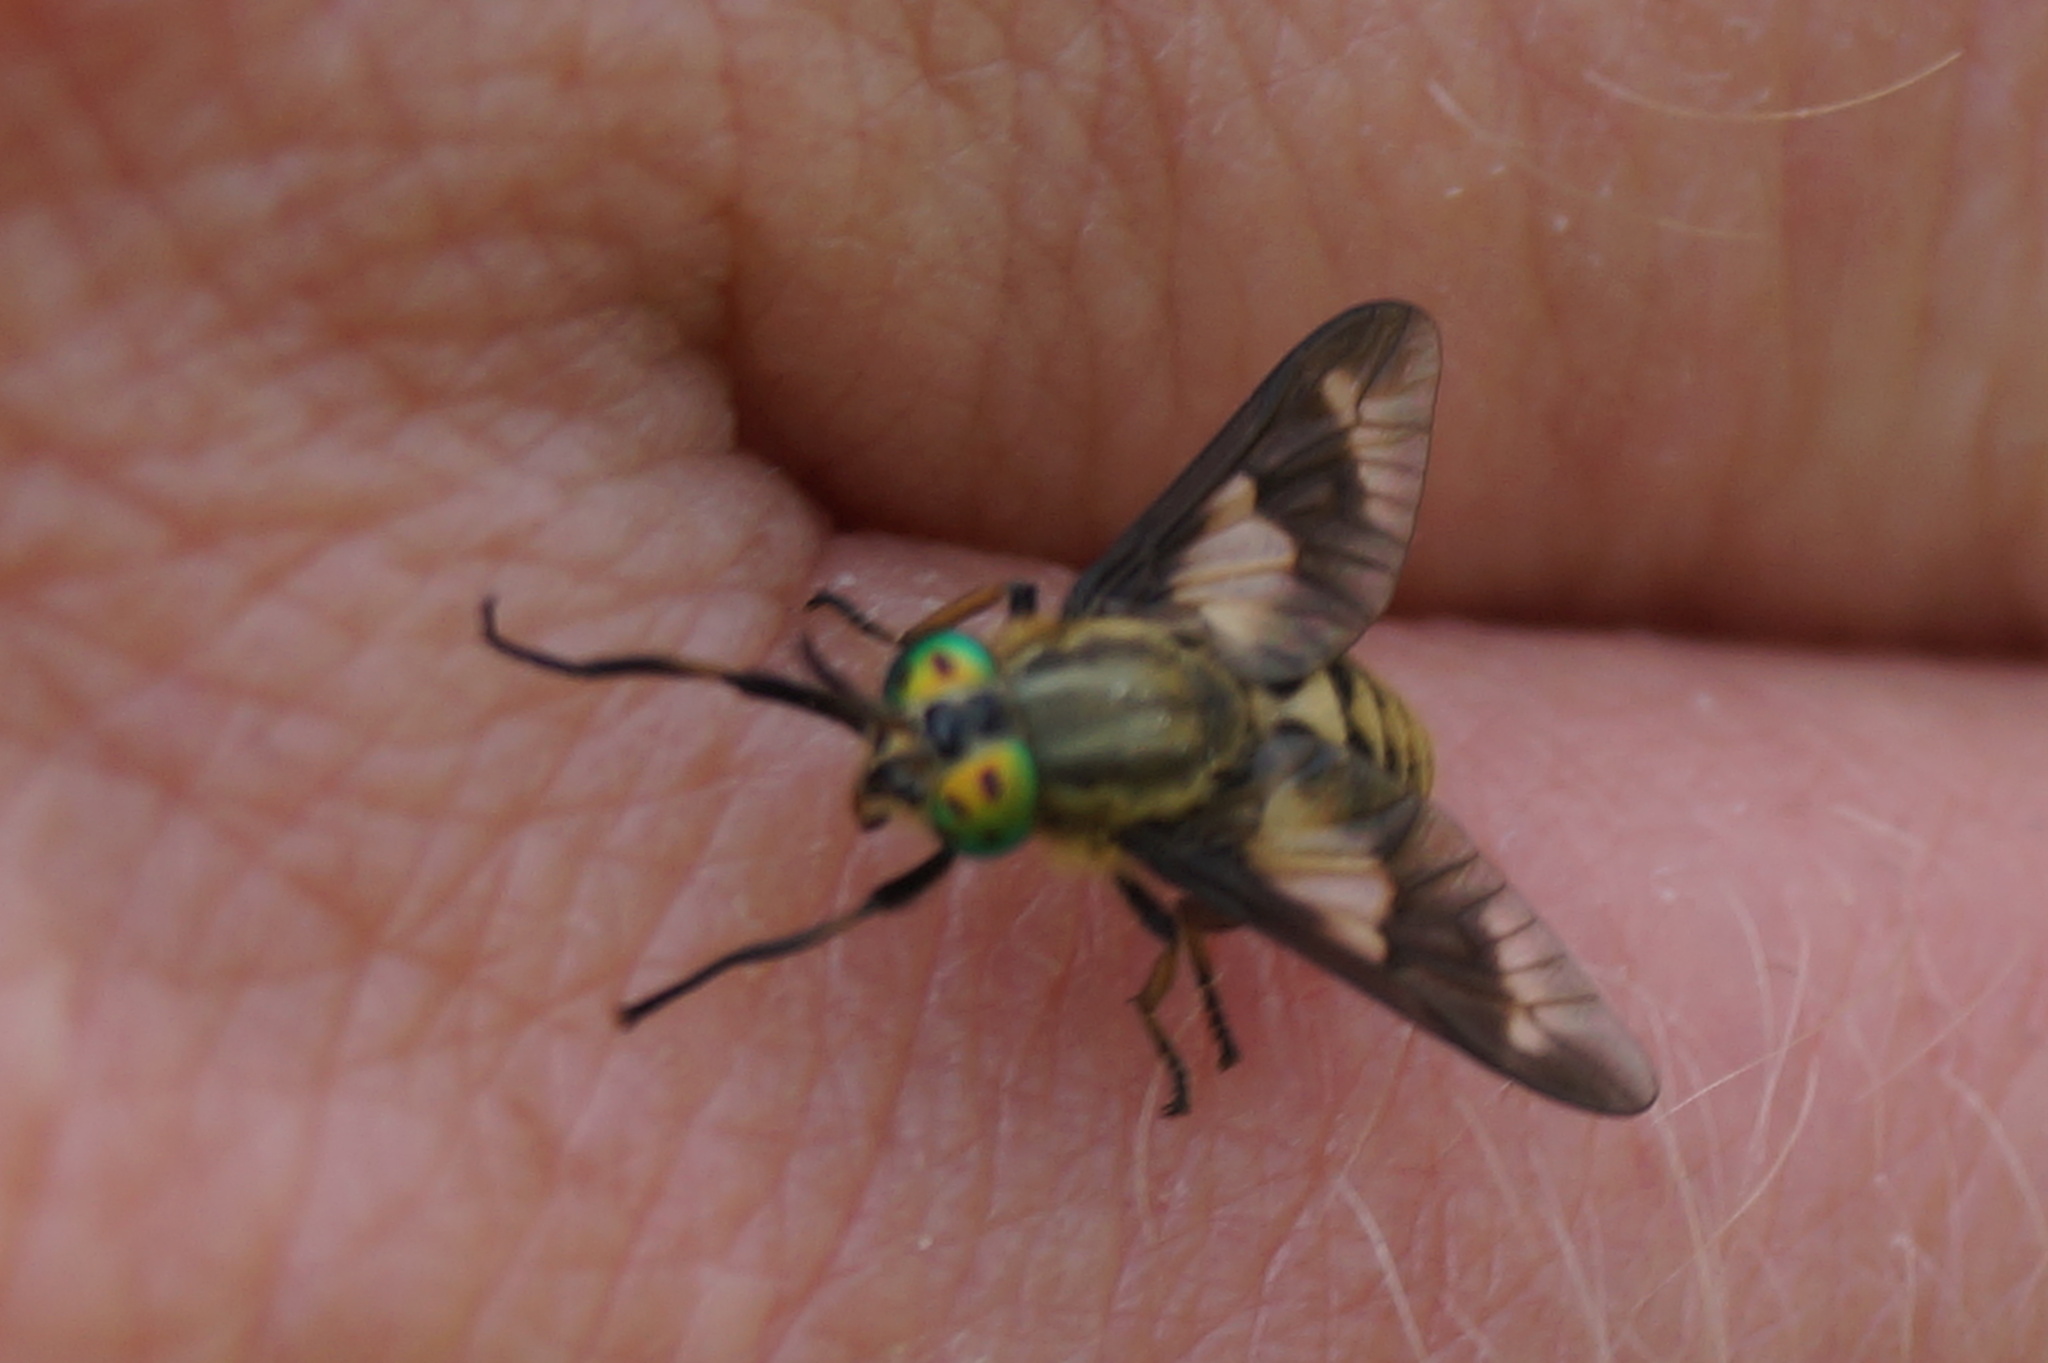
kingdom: Animalia
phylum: Arthropoda
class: Insecta
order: Diptera
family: Tabanidae
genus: Chrysops
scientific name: Chrysops relictus
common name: Twin-lobed deerfly
